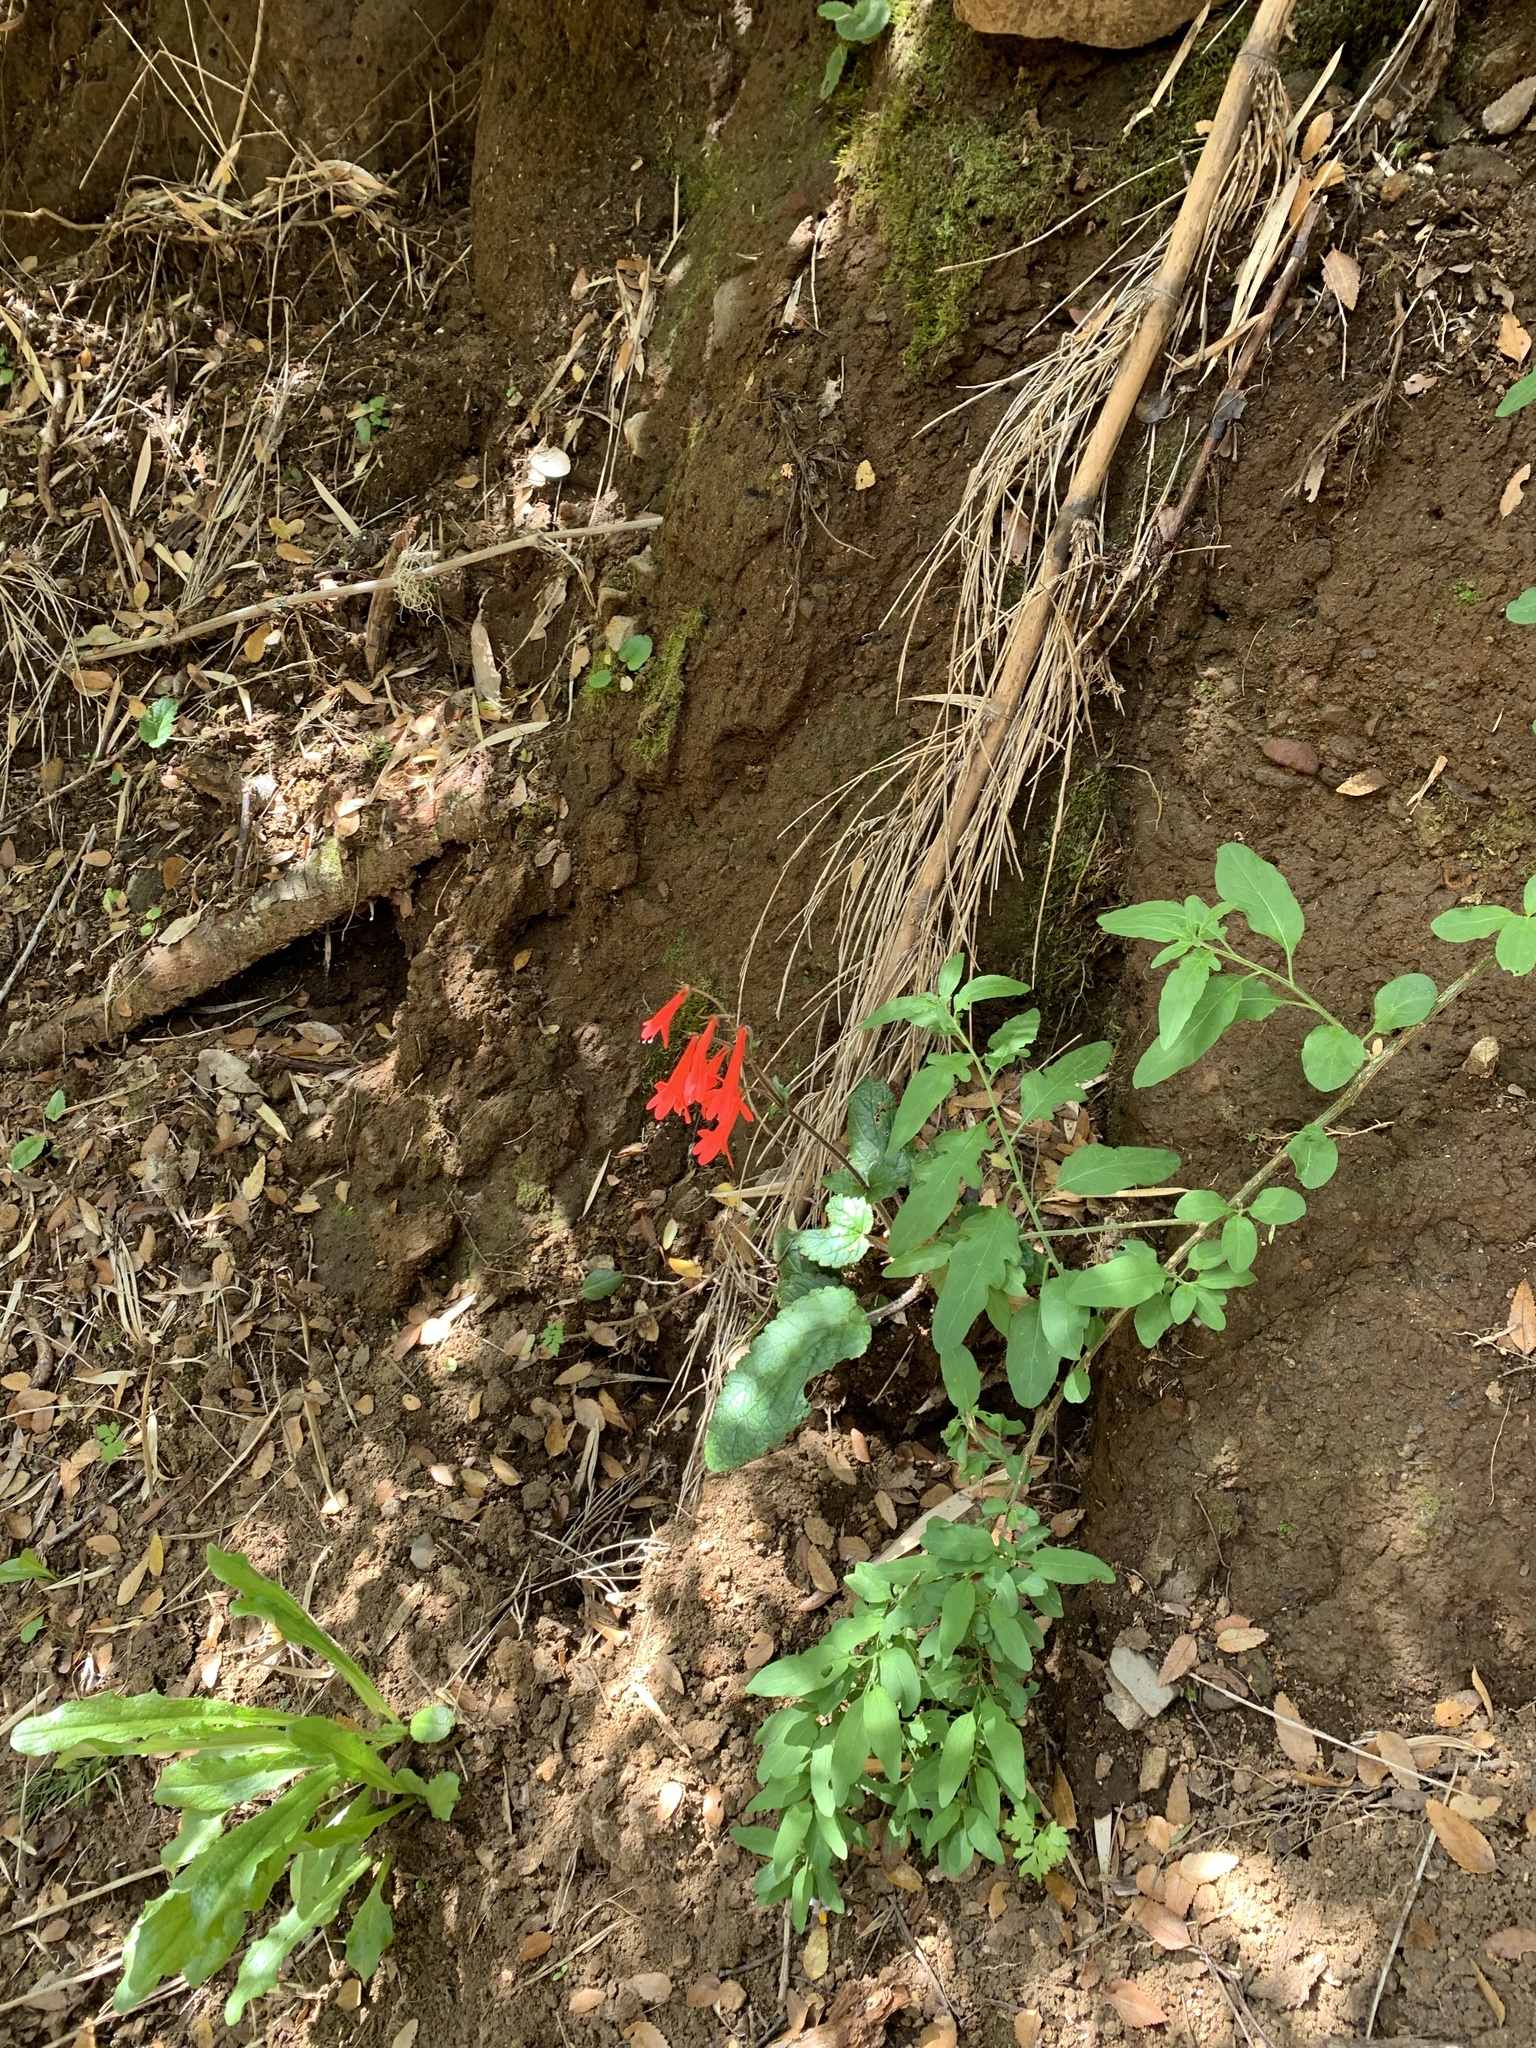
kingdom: Plantae
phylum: Tracheophyta
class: Magnoliopsida
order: Lamiales
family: Plantaginaceae
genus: Ourisia
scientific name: Ourisia coccinea
